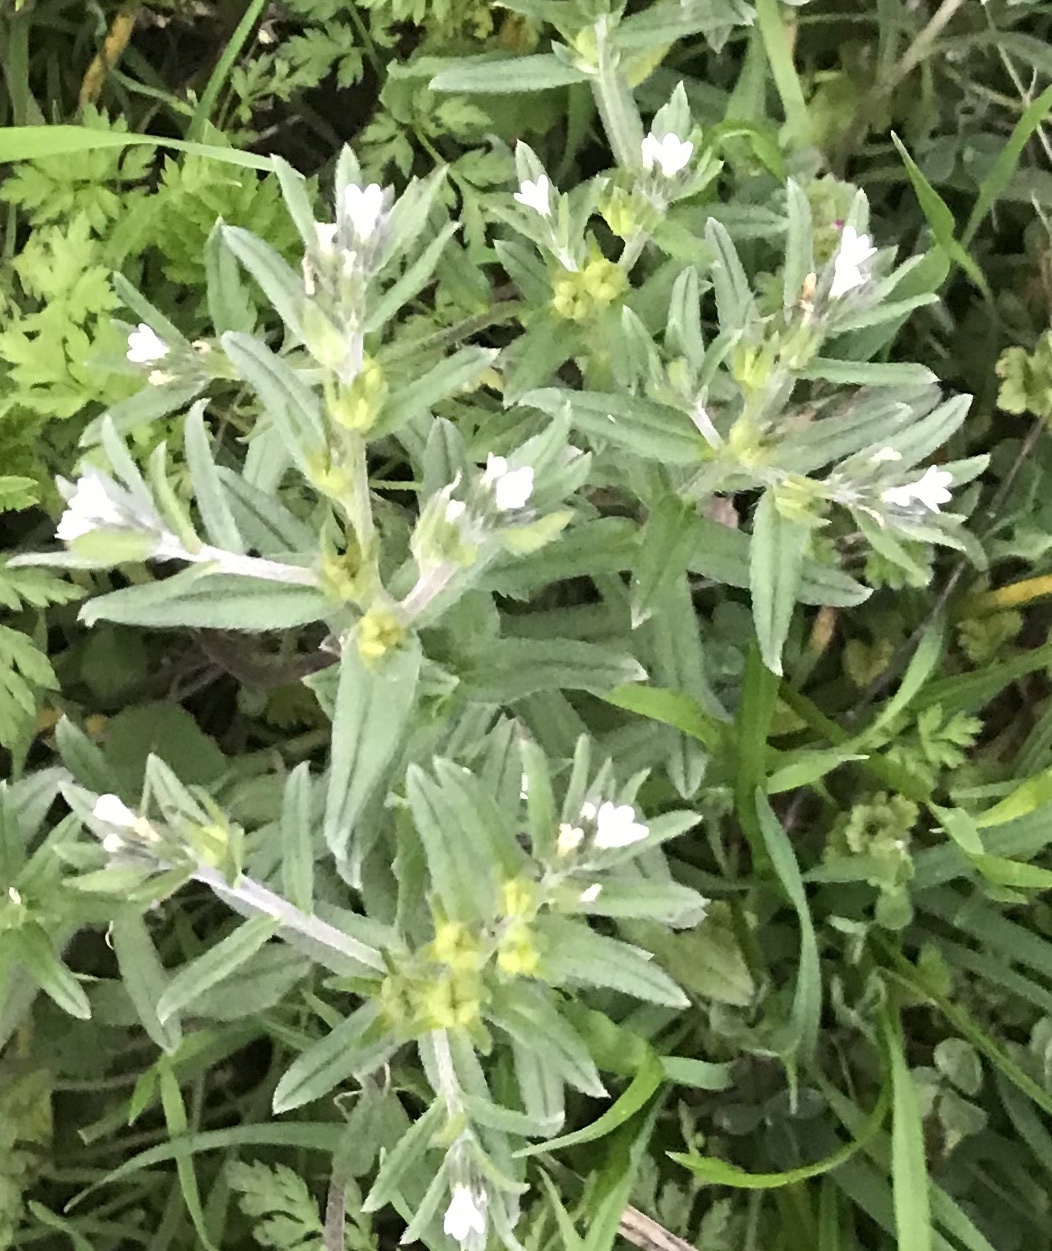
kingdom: Plantae
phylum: Tracheophyta
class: Magnoliopsida
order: Boraginales
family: Boraginaceae
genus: Buglossoides
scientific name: Buglossoides arvensis
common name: Corn gromwell
